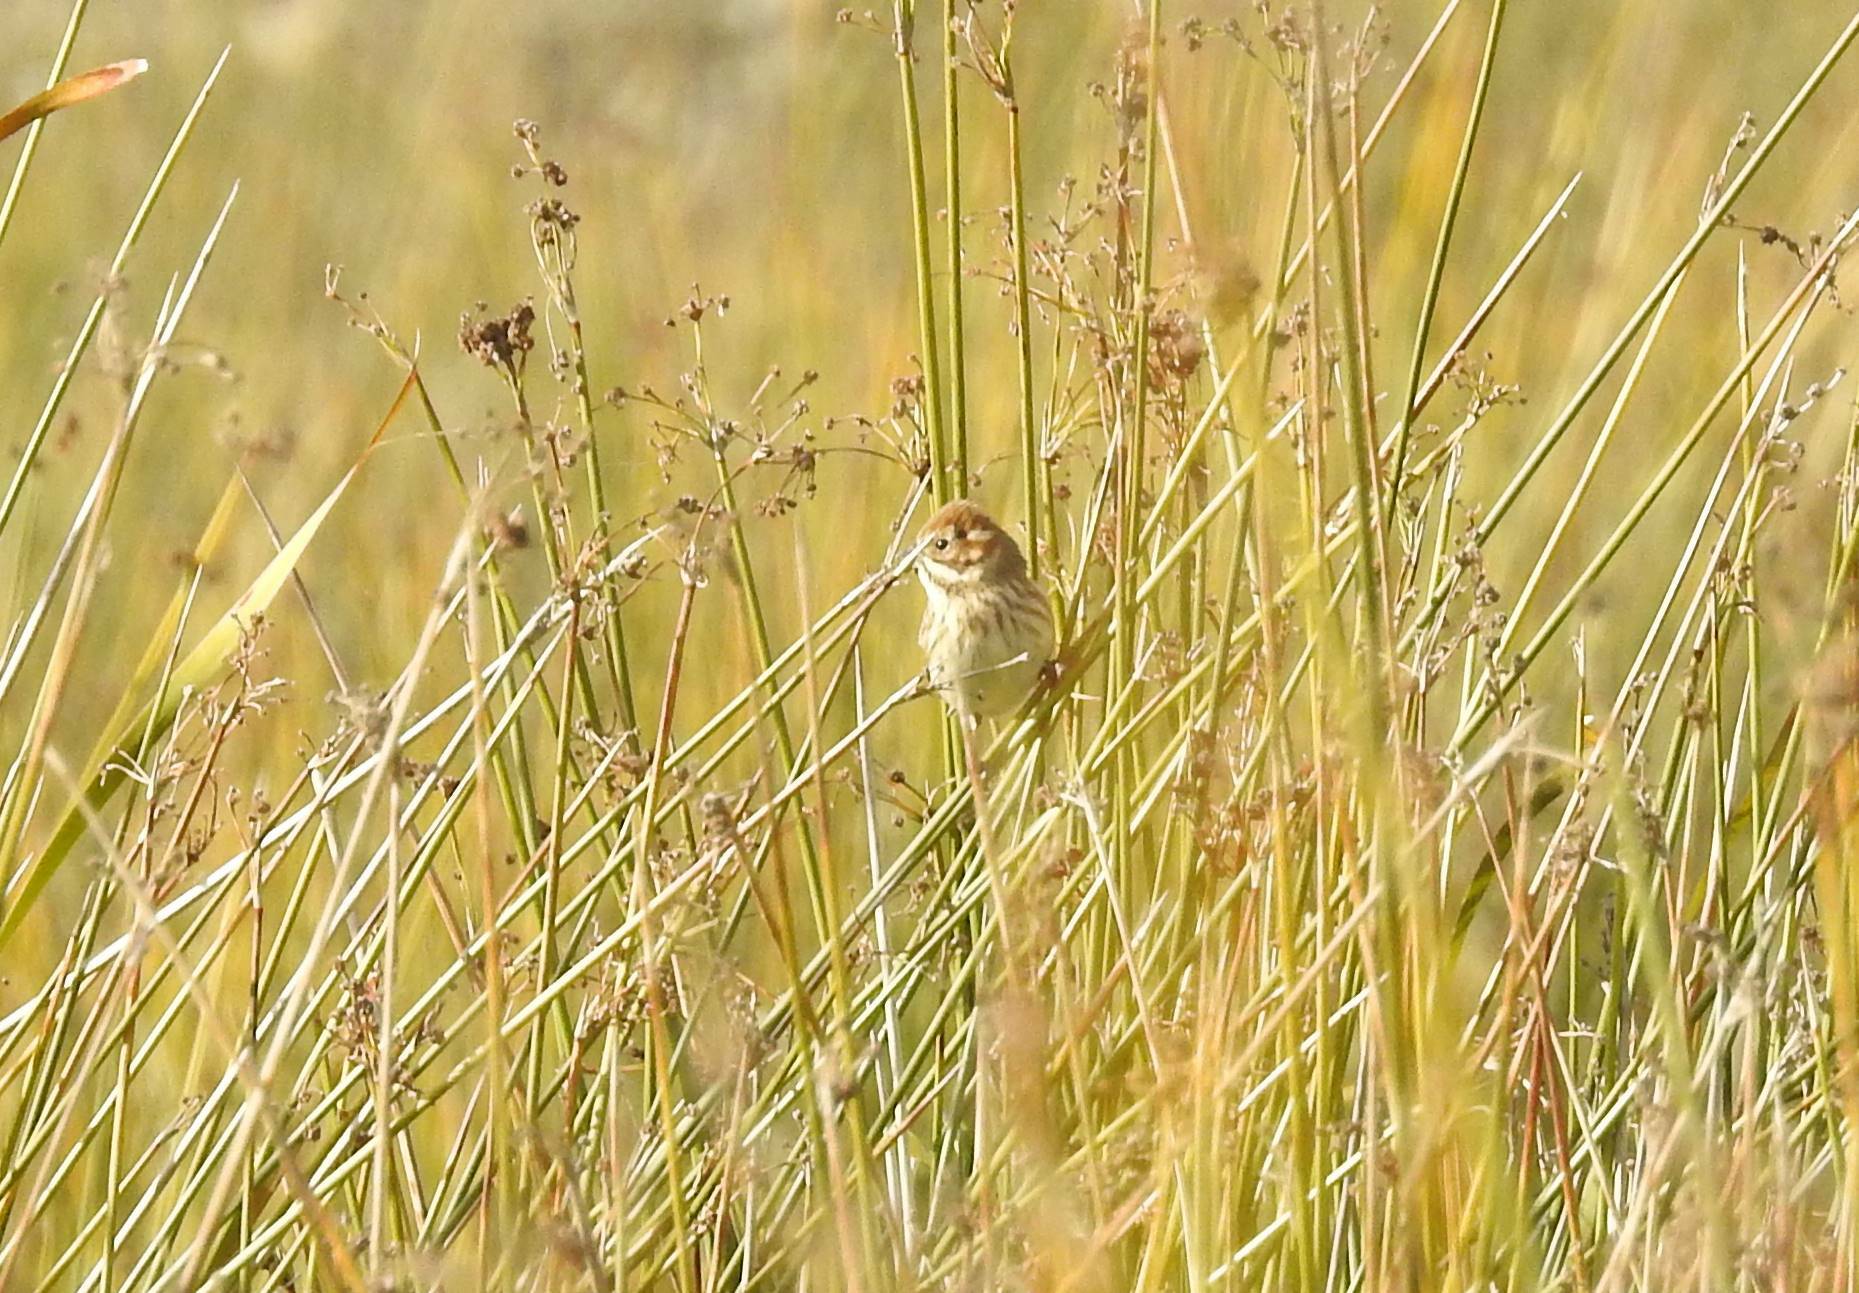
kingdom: Animalia
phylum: Chordata
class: Aves
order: Passeriformes
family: Emberizidae
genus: Emberiza
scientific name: Emberiza schoeniclus
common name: Reed bunting
